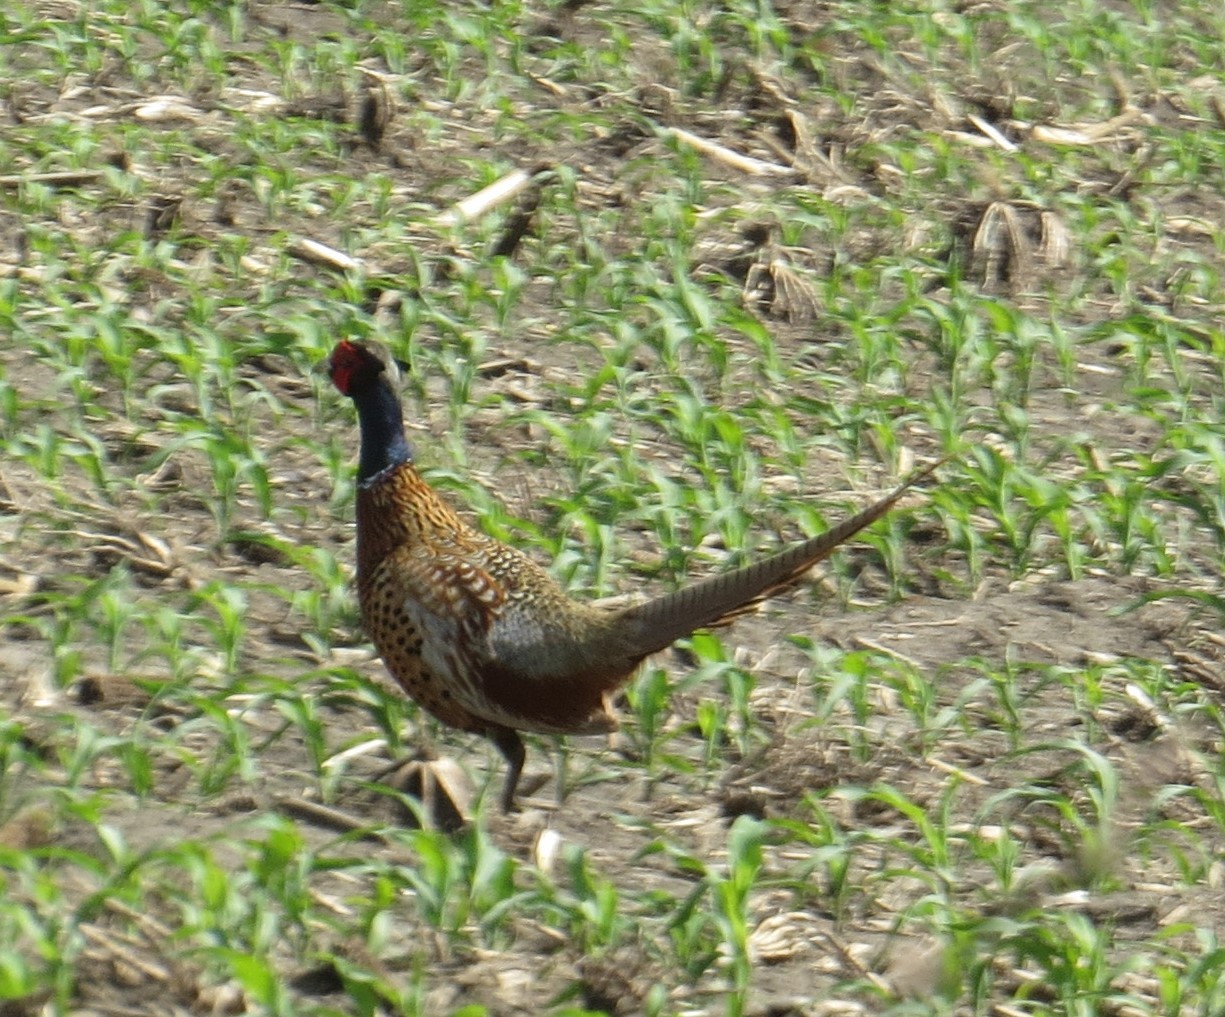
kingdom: Animalia
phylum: Chordata
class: Aves
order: Galliformes
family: Phasianidae
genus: Phasianus
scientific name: Phasianus colchicus
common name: Common pheasant
